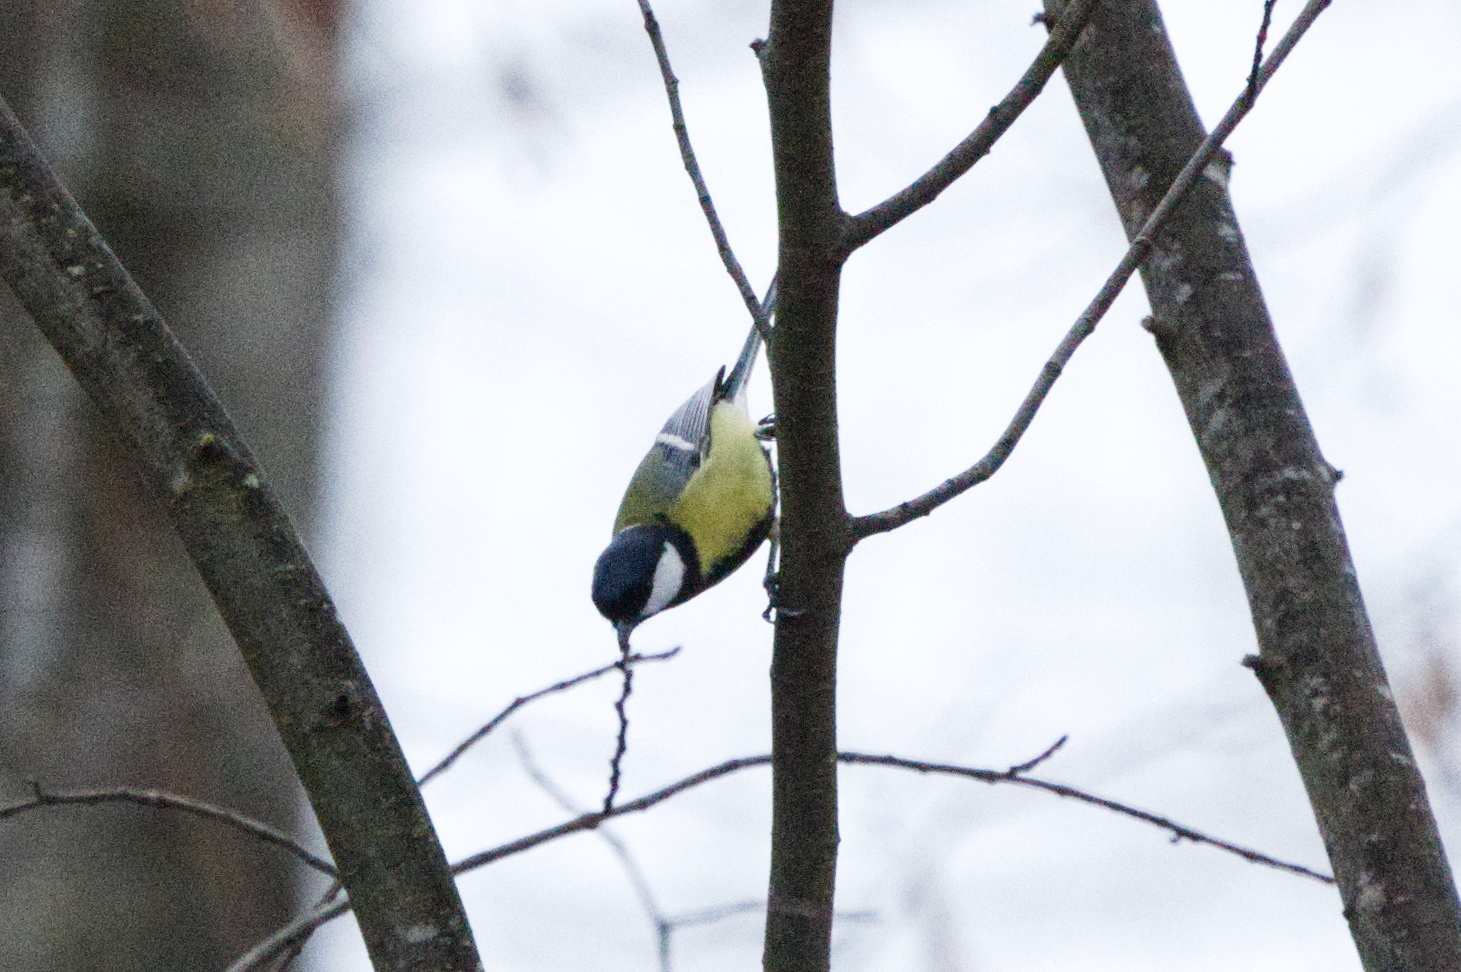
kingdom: Animalia
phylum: Chordata
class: Aves
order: Passeriformes
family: Paridae
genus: Parus
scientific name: Parus major
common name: Great tit
